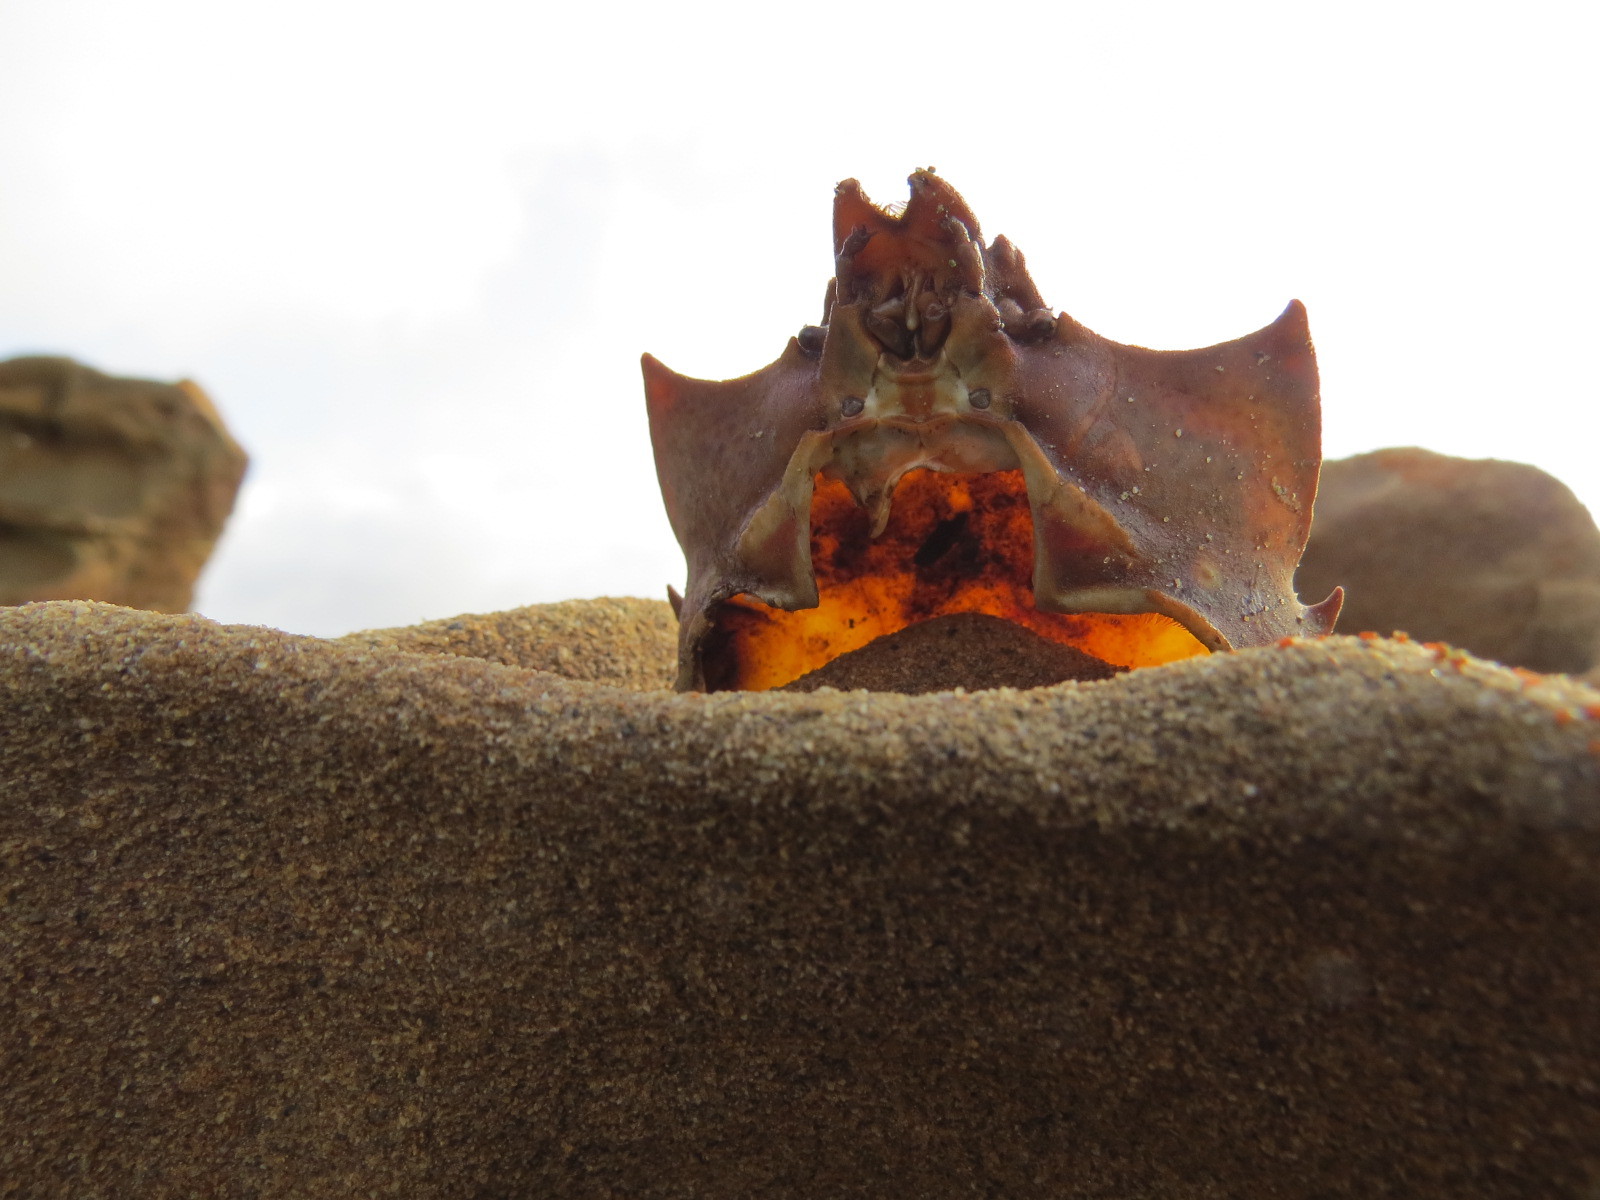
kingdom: Animalia
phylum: Arthropoda
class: Malacostraca
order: Decapoda
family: Epialtidae
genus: Pugettia
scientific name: Pugettia producta
